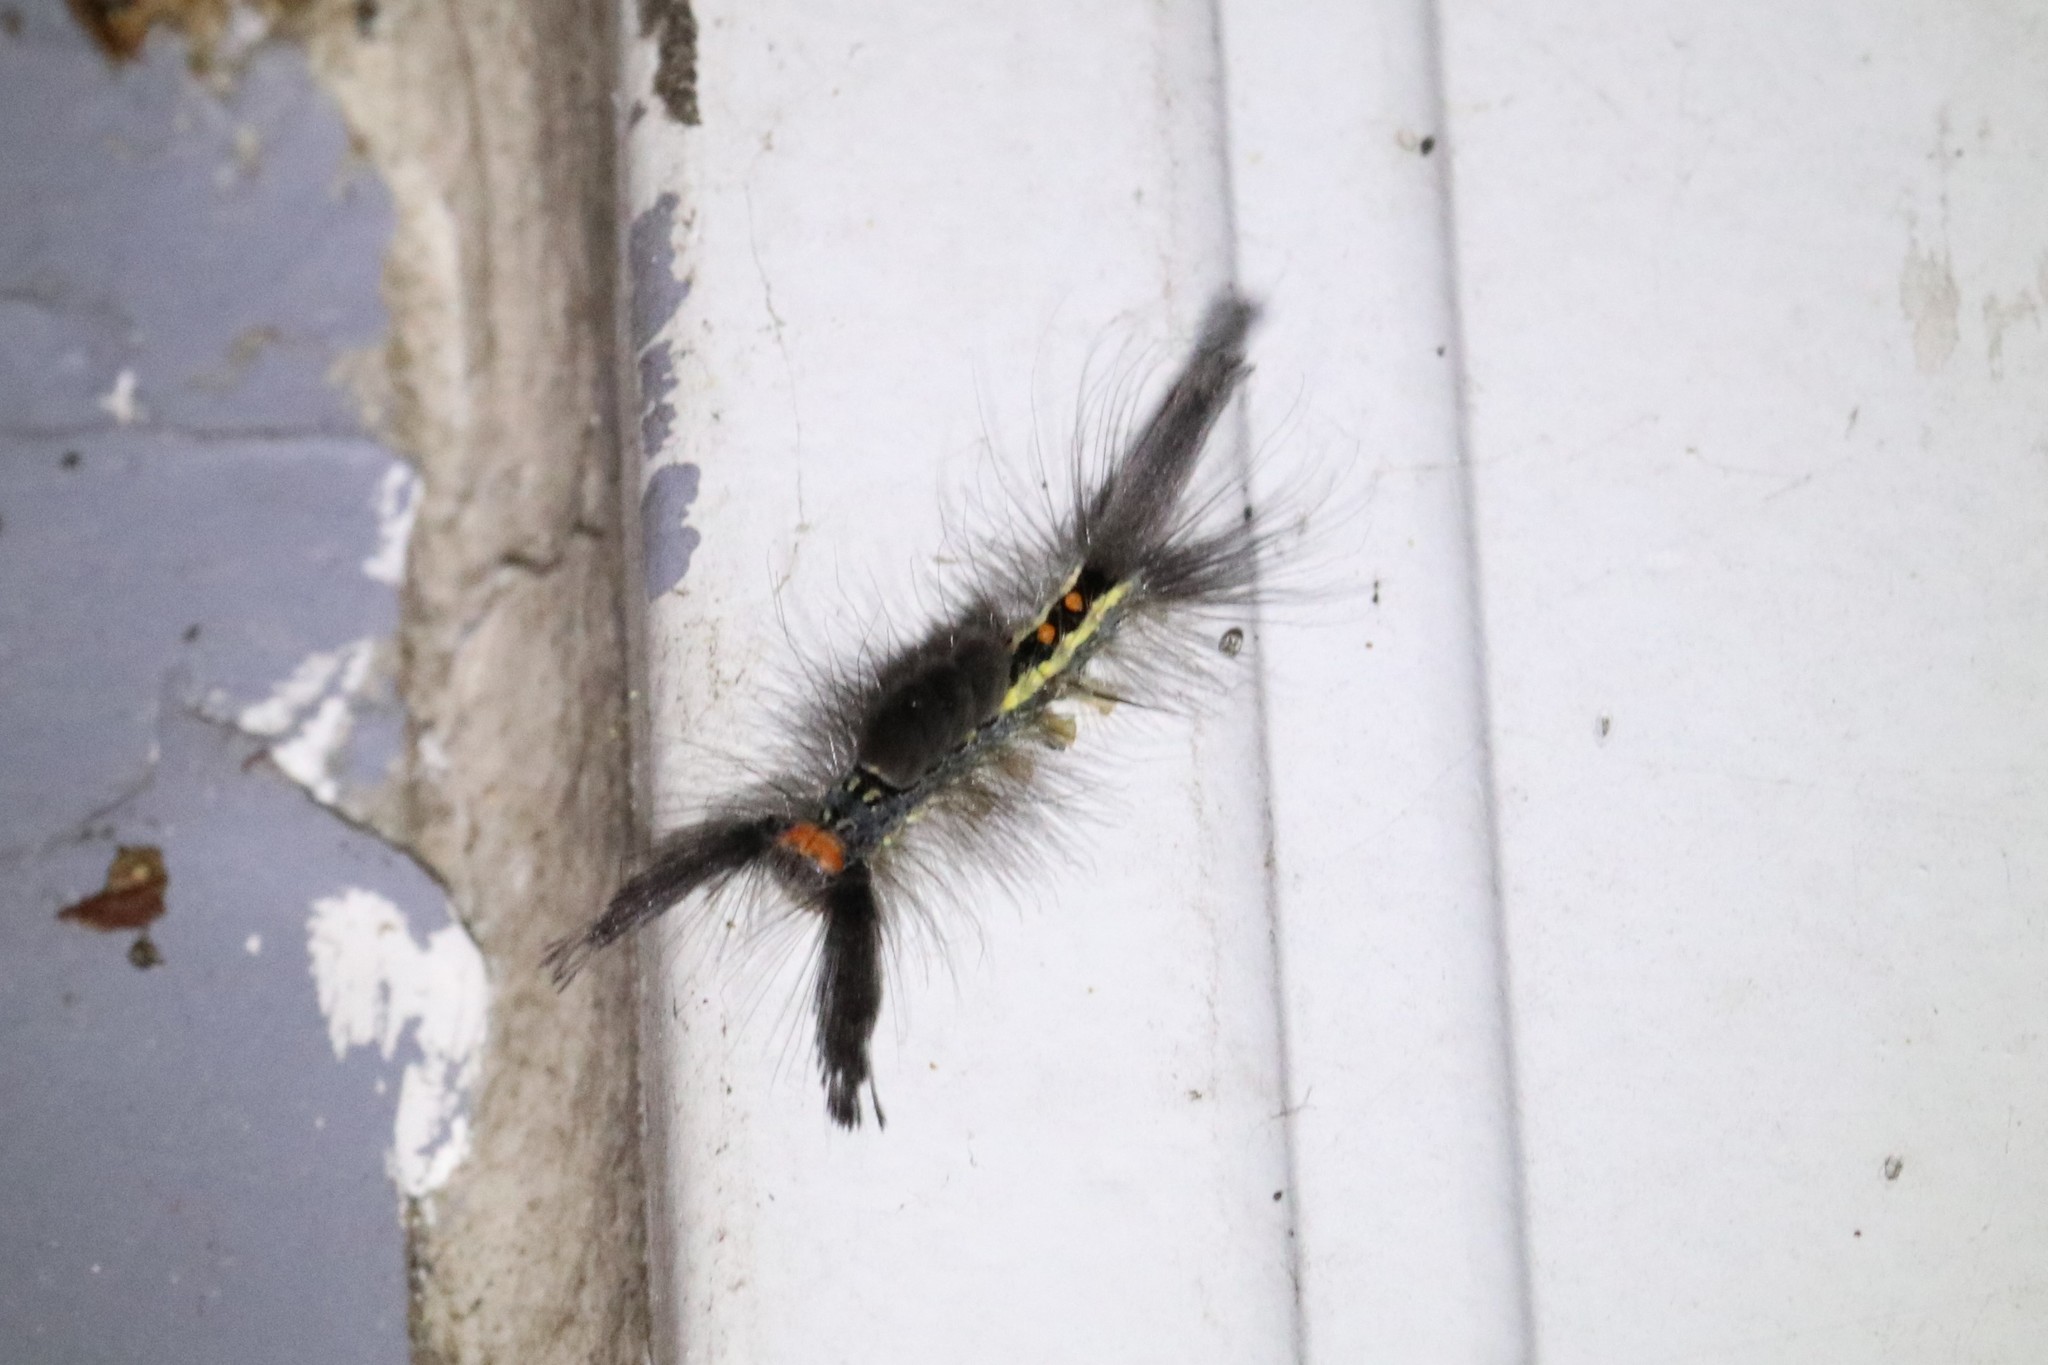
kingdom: Animalia
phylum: Arthropoda
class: Insecta
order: Lepidoptera
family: Erebidae
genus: Orgyia
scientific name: Orgyia leucostigma
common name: White-marked tussock moth
